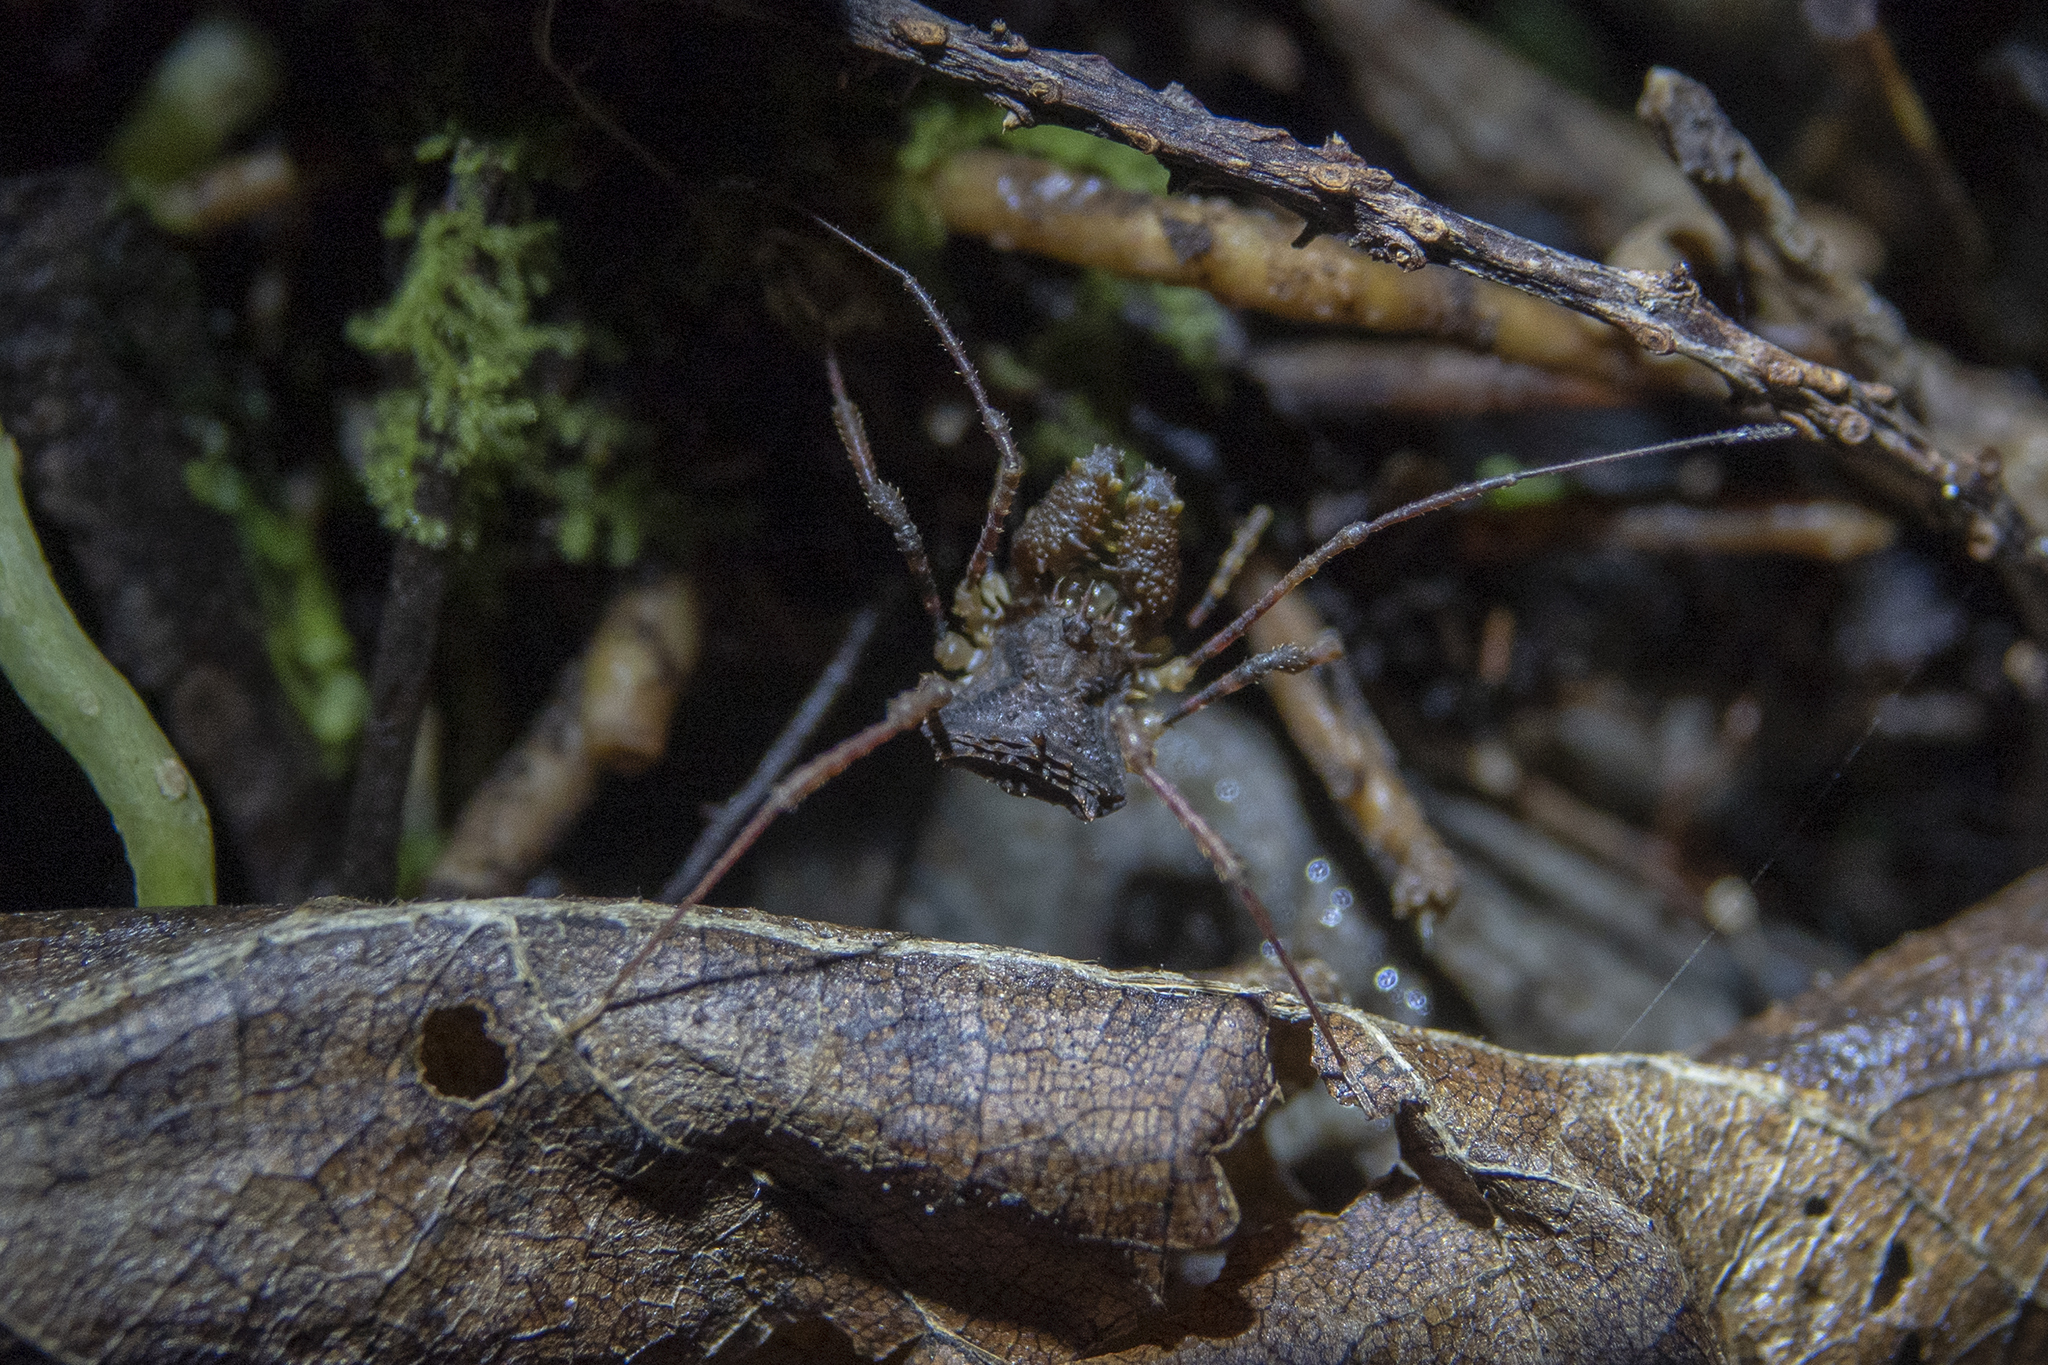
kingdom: Animalia
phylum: Arthropoda
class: Arachnida
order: Opiliones
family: Triaenonychidae
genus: Karamea
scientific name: Karamea lobata
